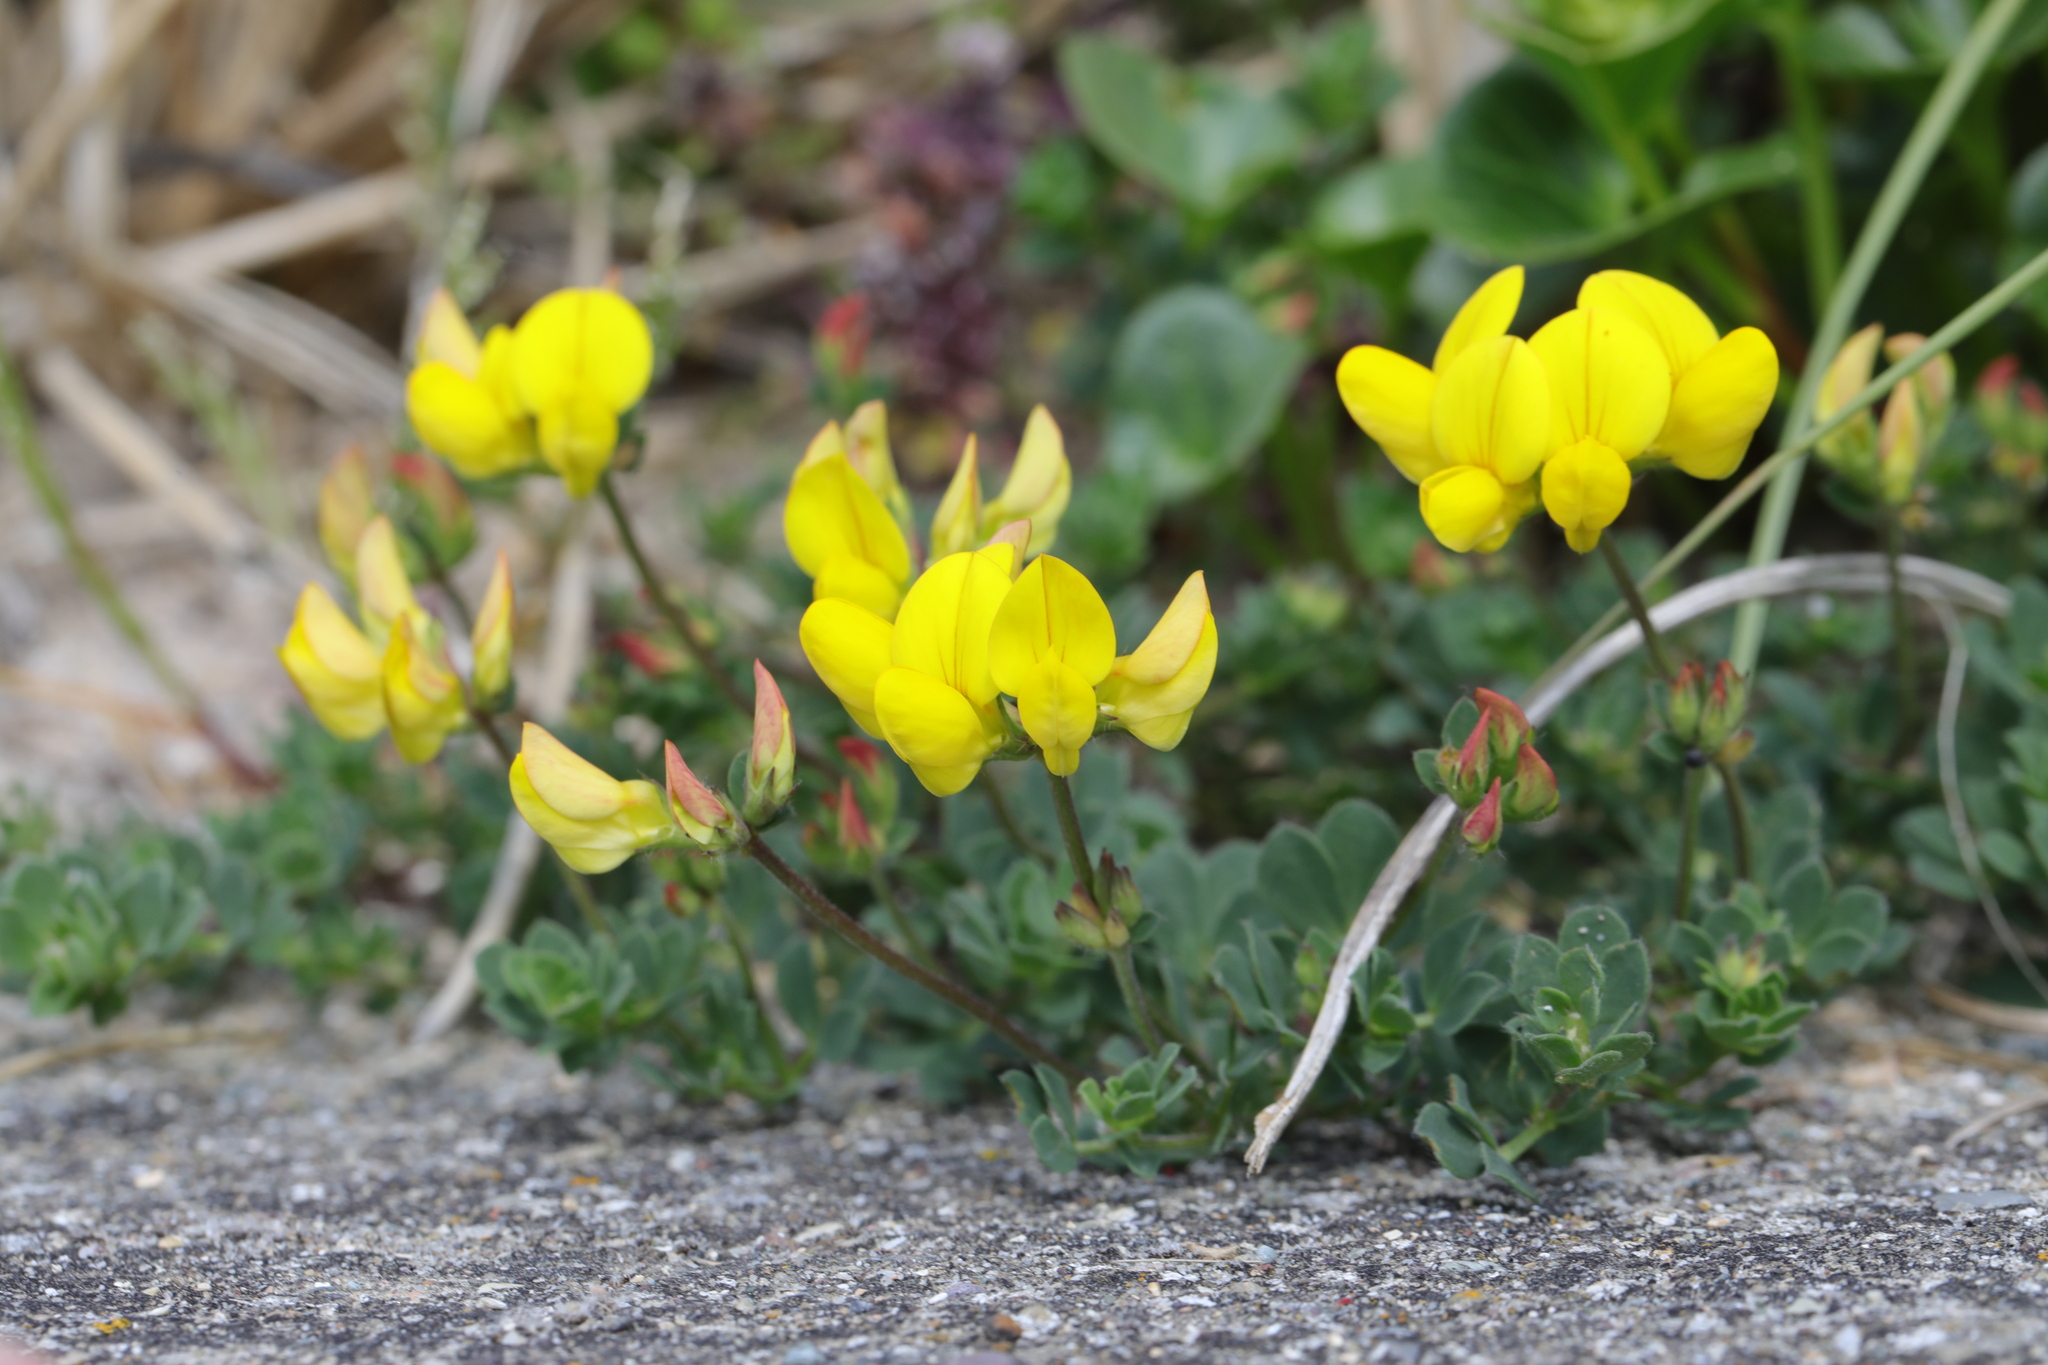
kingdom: Plantae
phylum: Tracheophyta
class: Magnoliopsida
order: Fabales
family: Fabaceae
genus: Lotus
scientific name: Lotus corniculatus
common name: Common bird's-foot-trefoil
